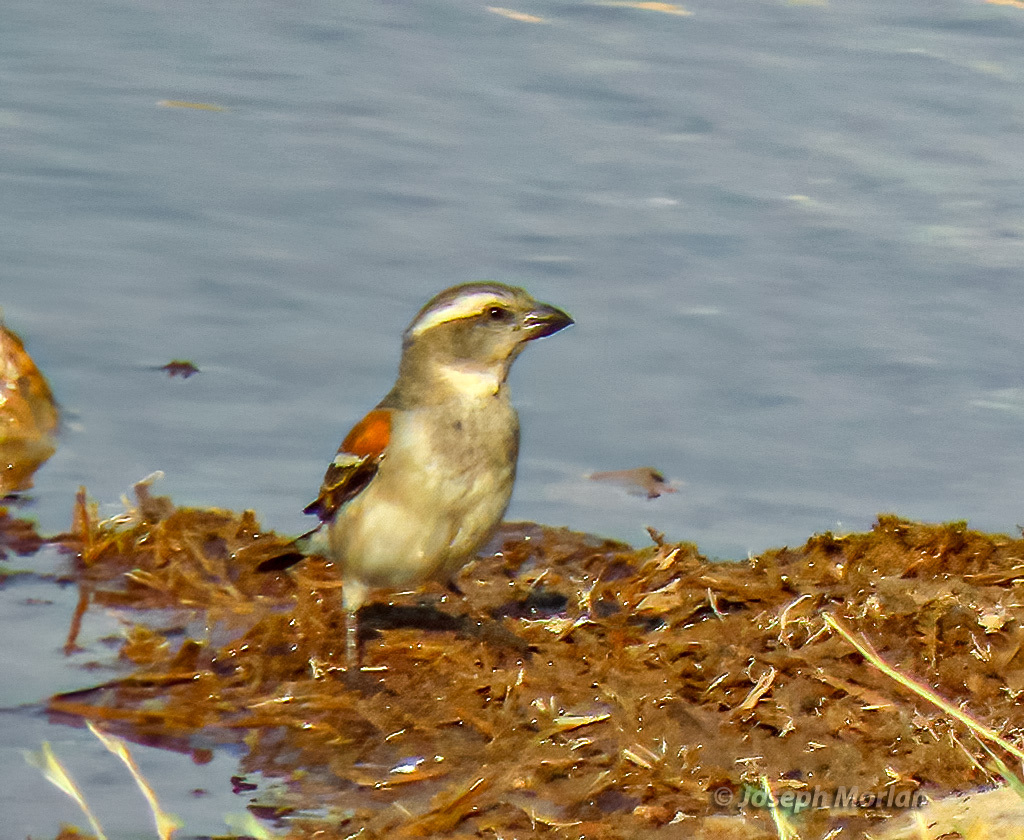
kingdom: Animalia
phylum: Chordata
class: Aves
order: Passeriformes
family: Passeridae
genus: Passer
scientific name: Passer melanurus
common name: Cape sparrow
